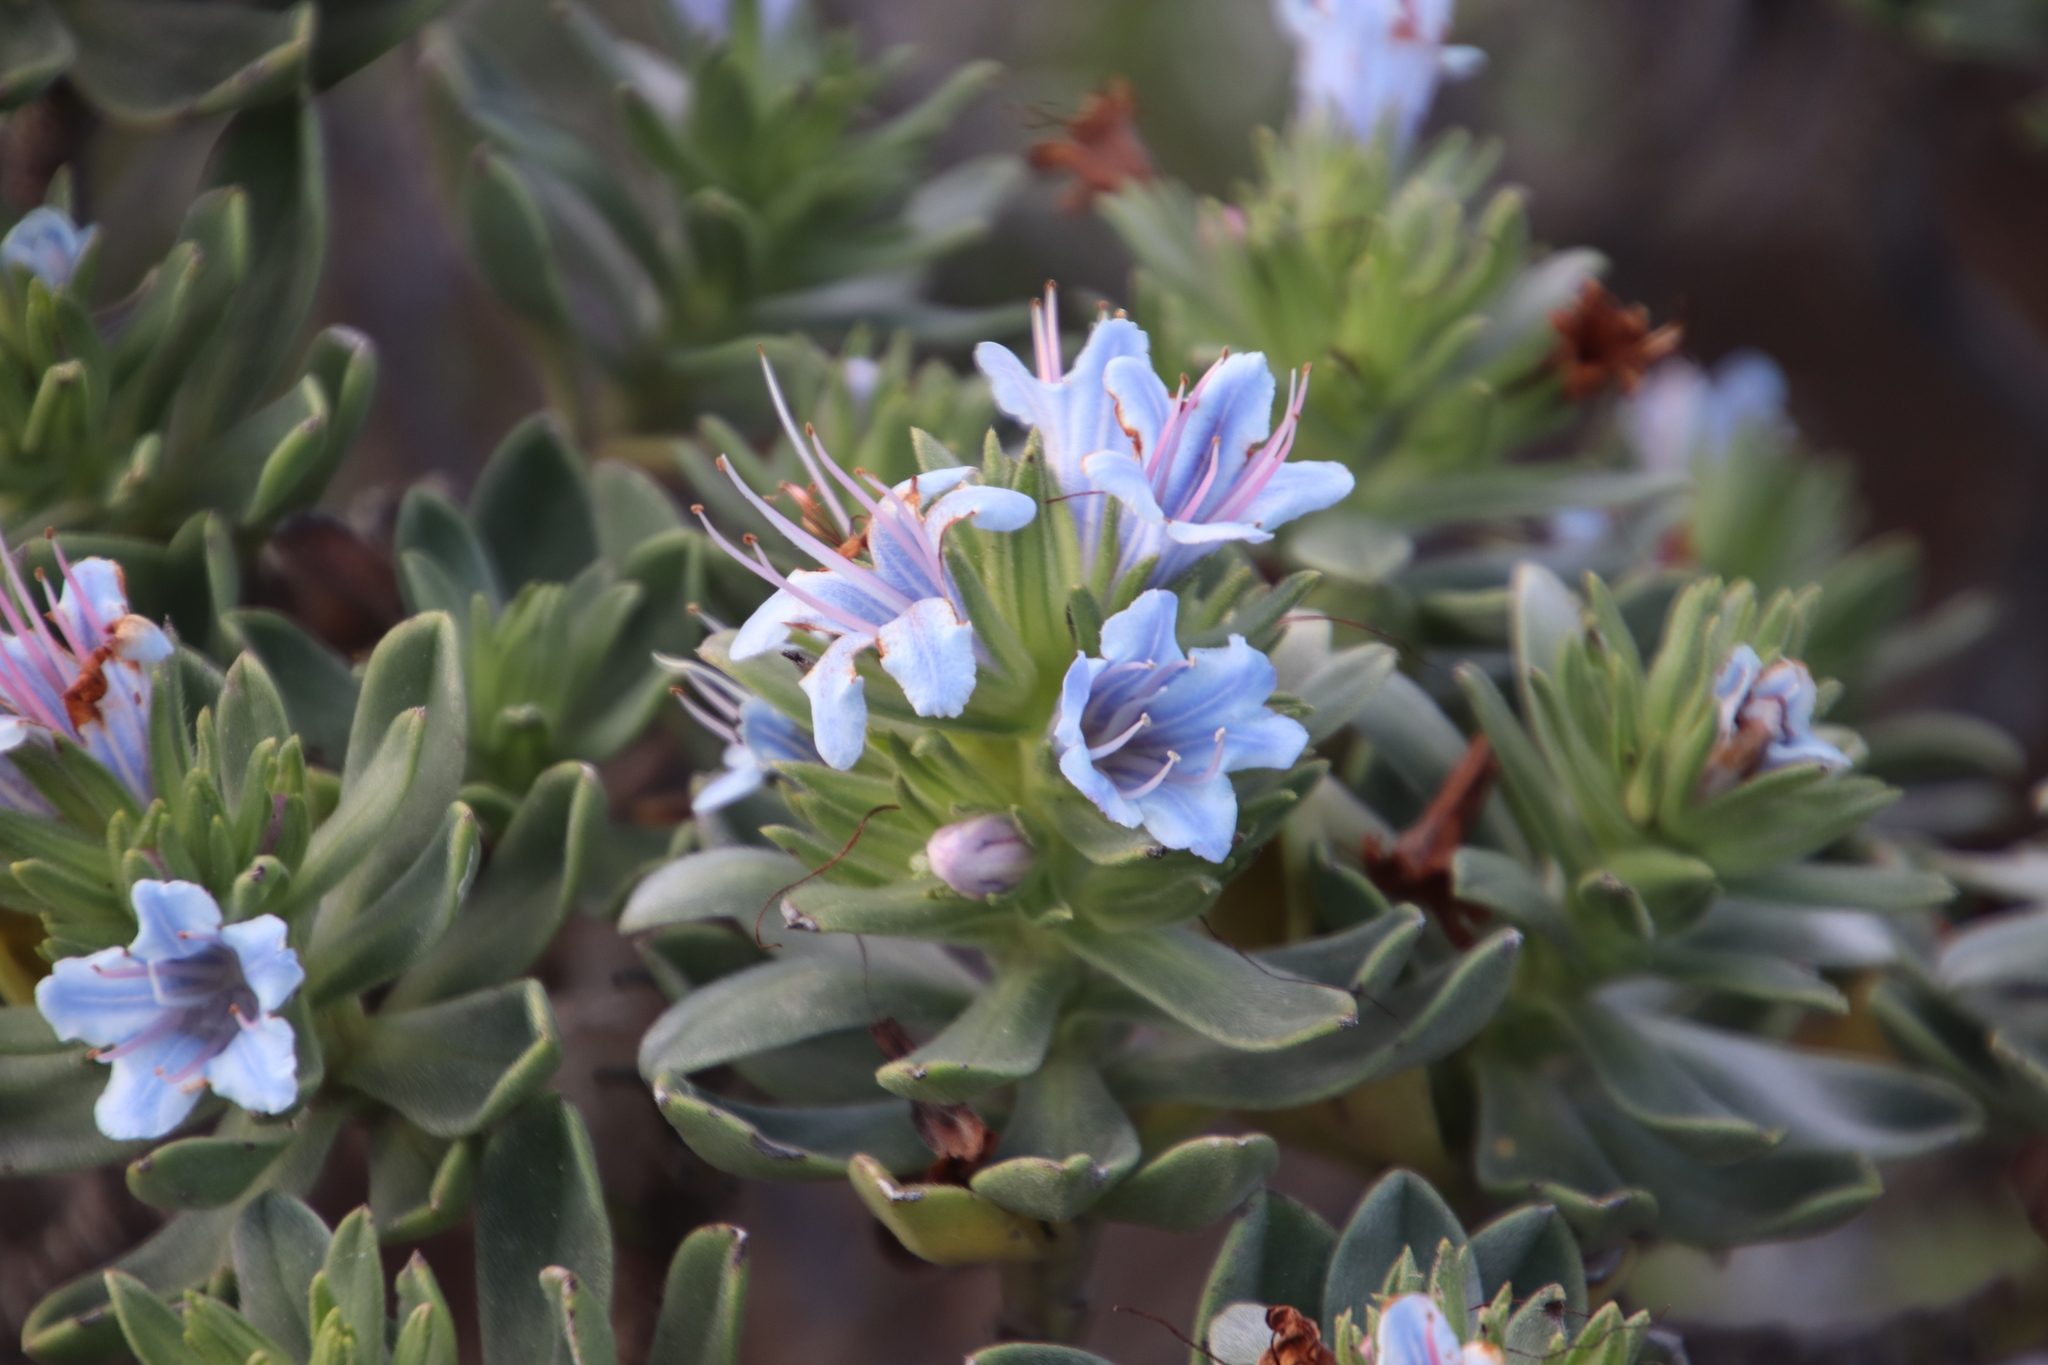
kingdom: Plantae
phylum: Tracheophyta
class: Magnoliopsida
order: Boraginales
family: Boraginaceae
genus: Lobostemon
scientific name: Lobostemon montanus
